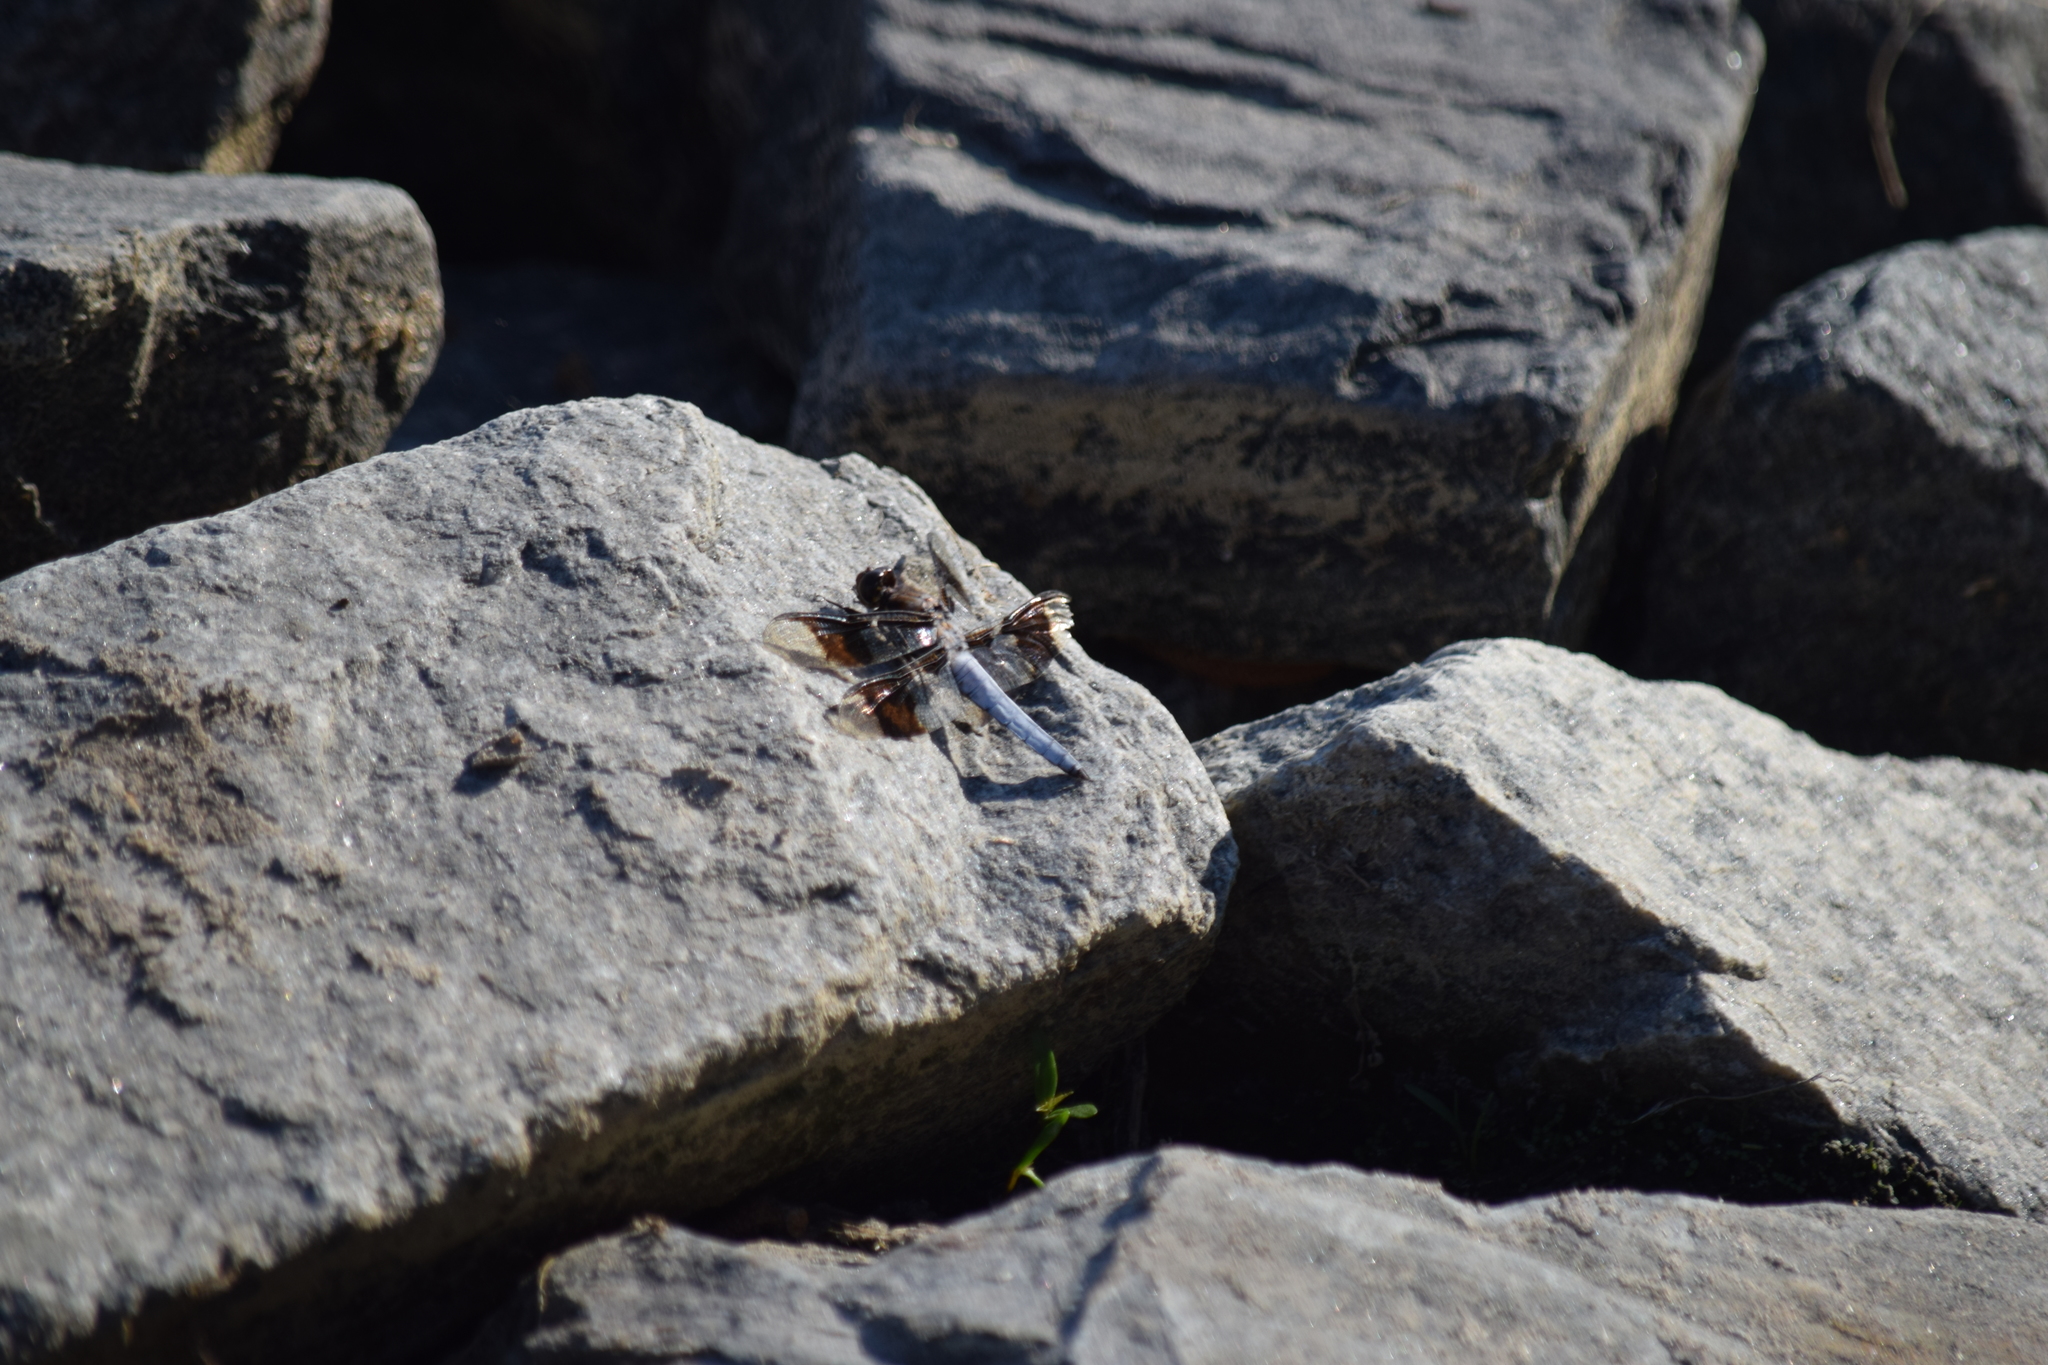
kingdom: Animalia
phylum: Arthropoda
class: Insecta
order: Odonata
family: Libellulidae
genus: Plathemis
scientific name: Plathemis lydia
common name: Common whitetail
